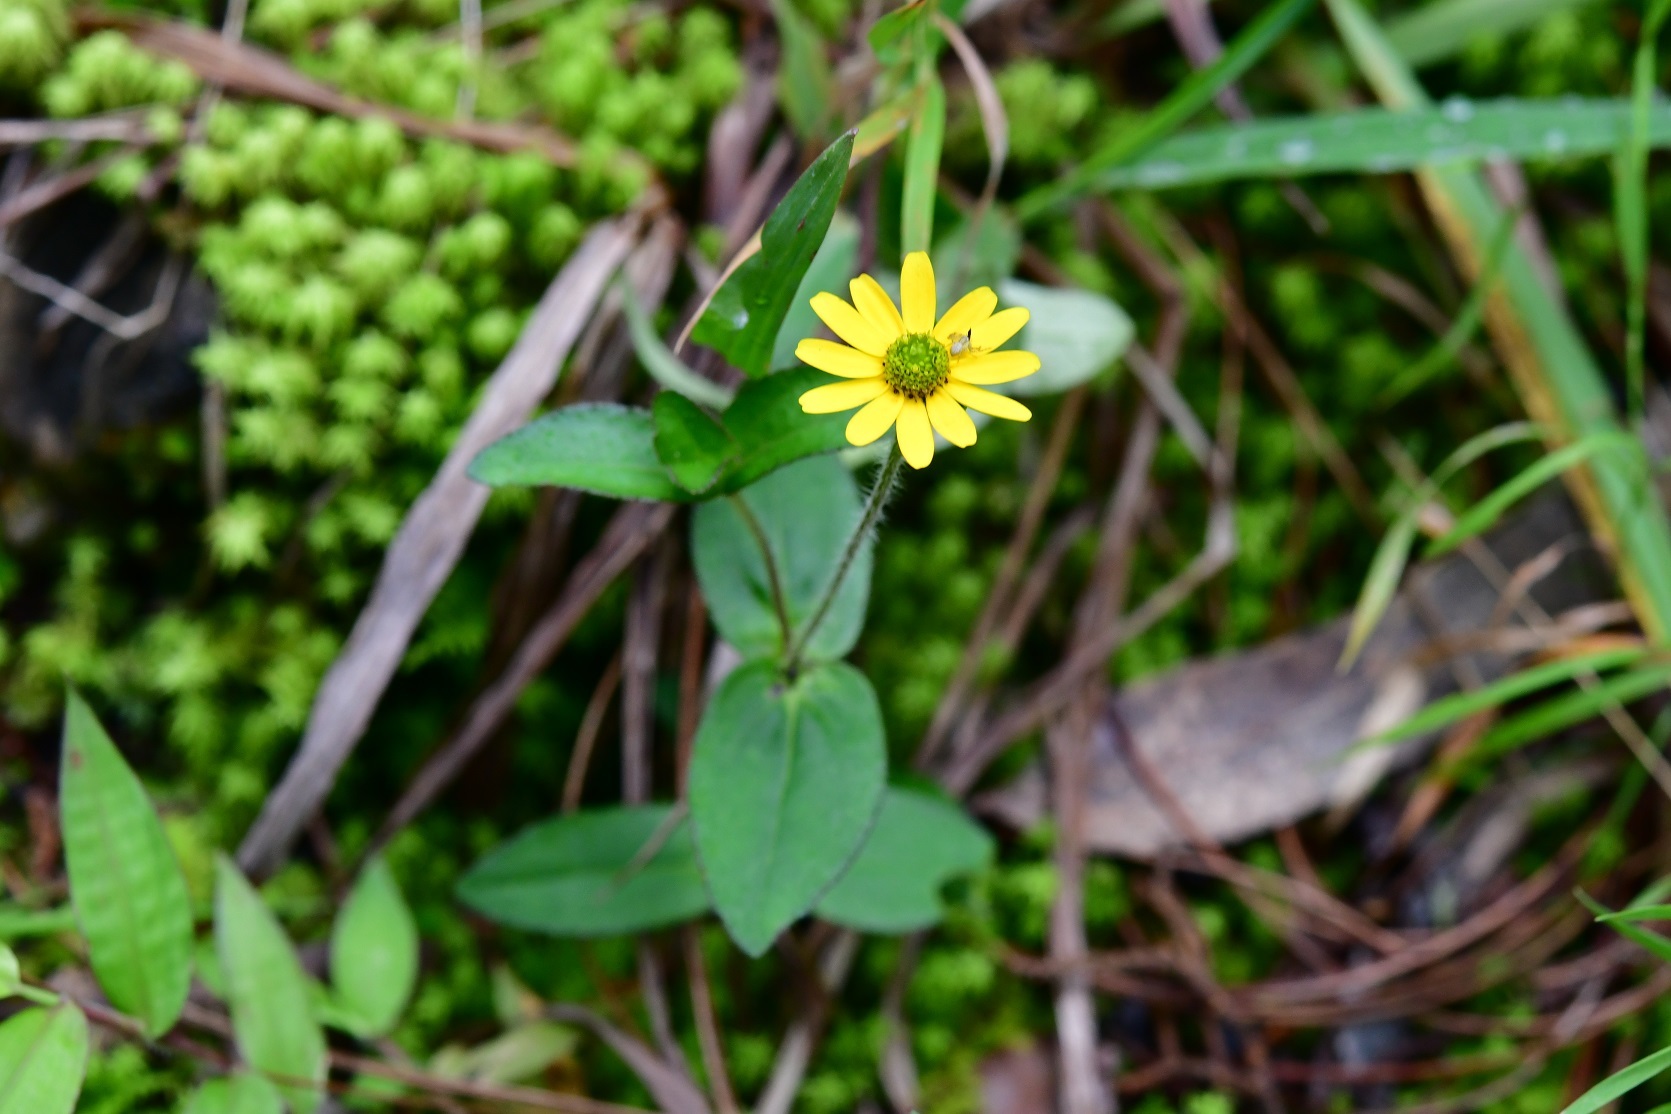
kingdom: Plantae
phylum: Tracheophyta
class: Magnoliopsida
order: Asterales
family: Asteraceae
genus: Melampodium
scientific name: Melampodium montanum
